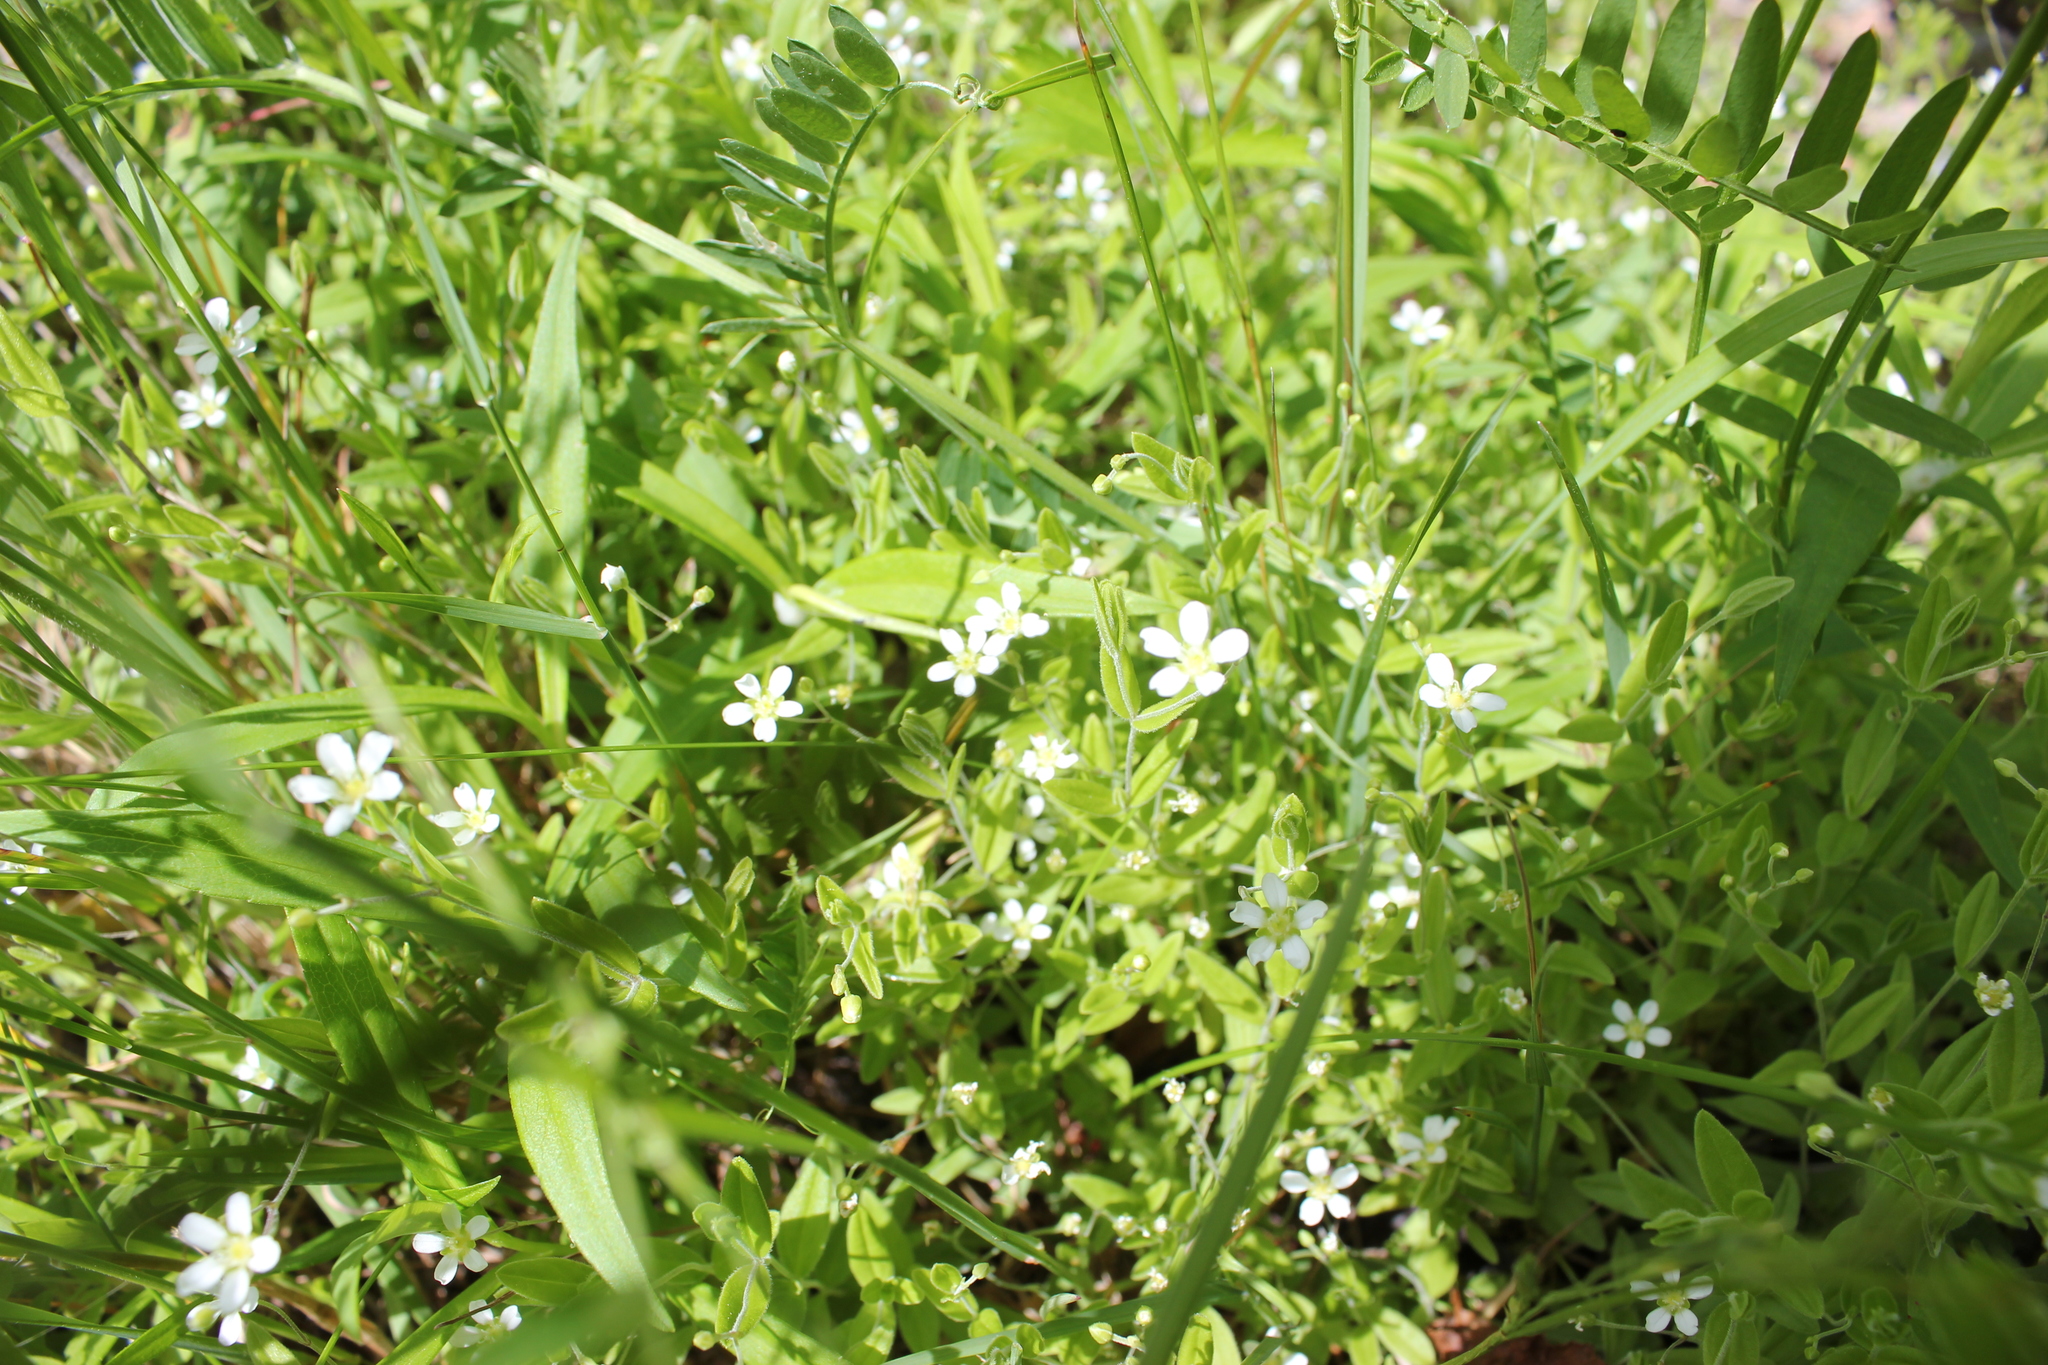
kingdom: Plantae
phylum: Tracheophyta
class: Magnoliopsida
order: Caryophyllales
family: Caryophyllaceae
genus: Moehringia
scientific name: Moehringia lateriflora
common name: Blunt-leaved sandwort
